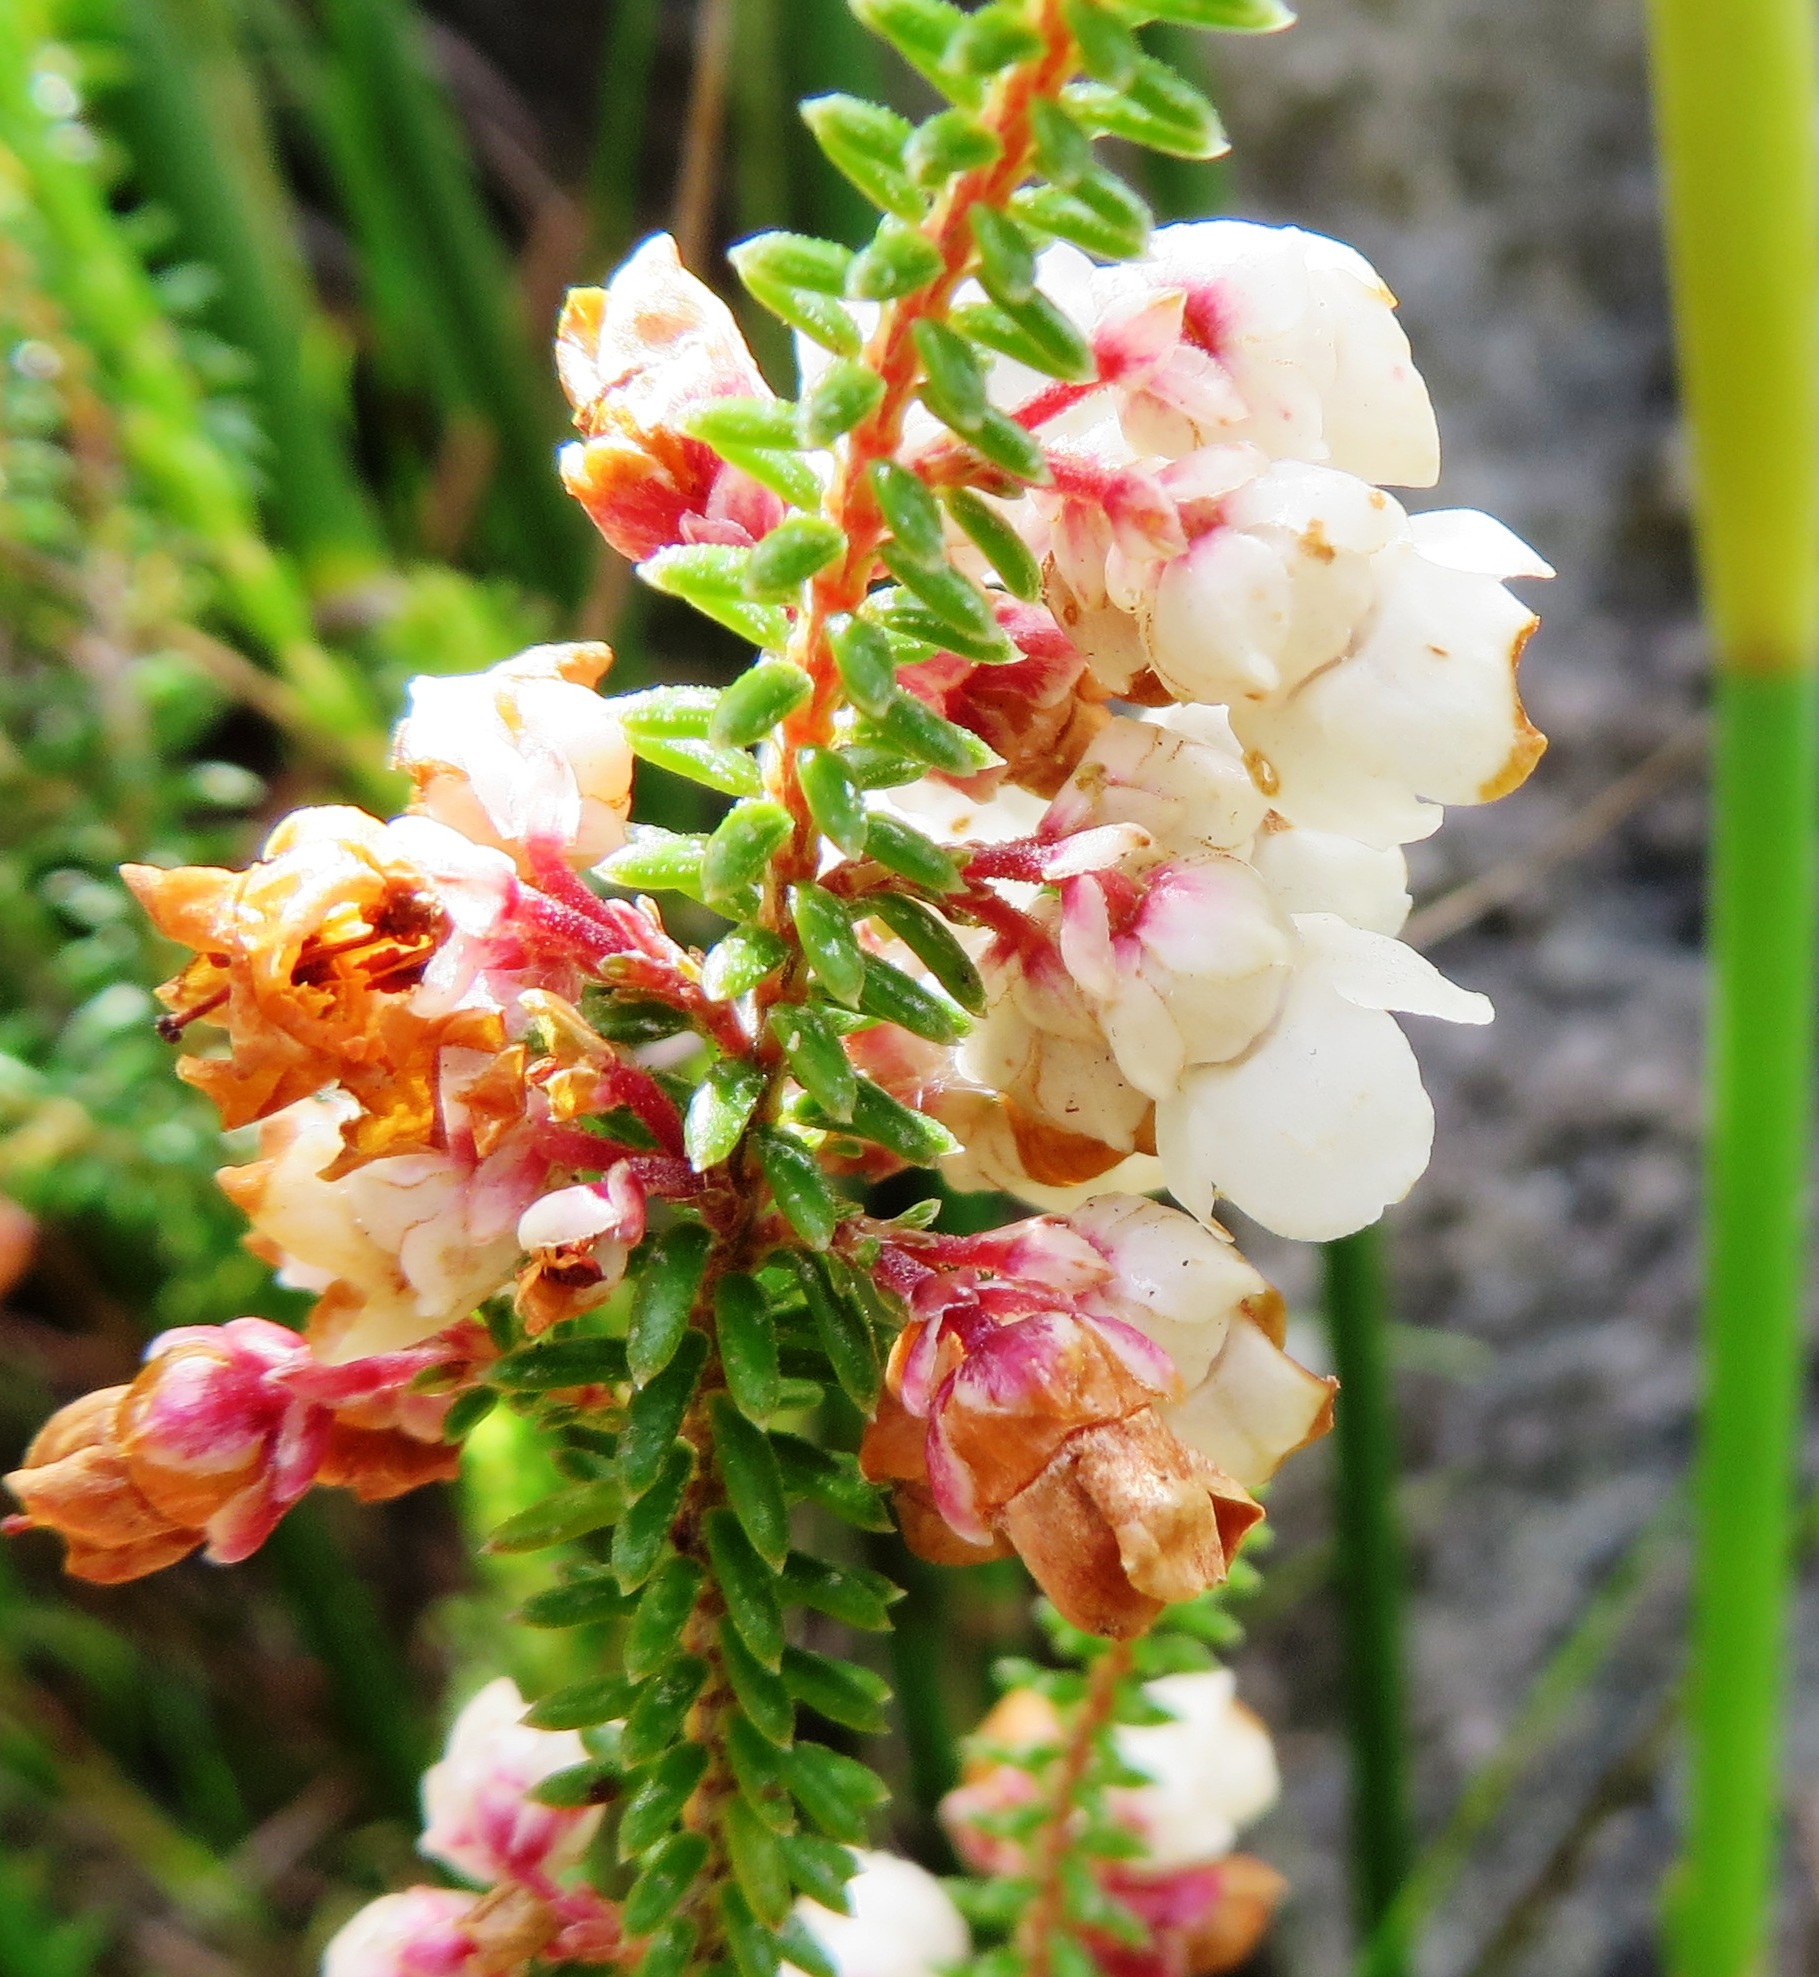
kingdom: Plantae
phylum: Tracheophyta
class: Magnoliopsida
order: Ericales
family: Ericaceae
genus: Erica
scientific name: Erica corydalis
